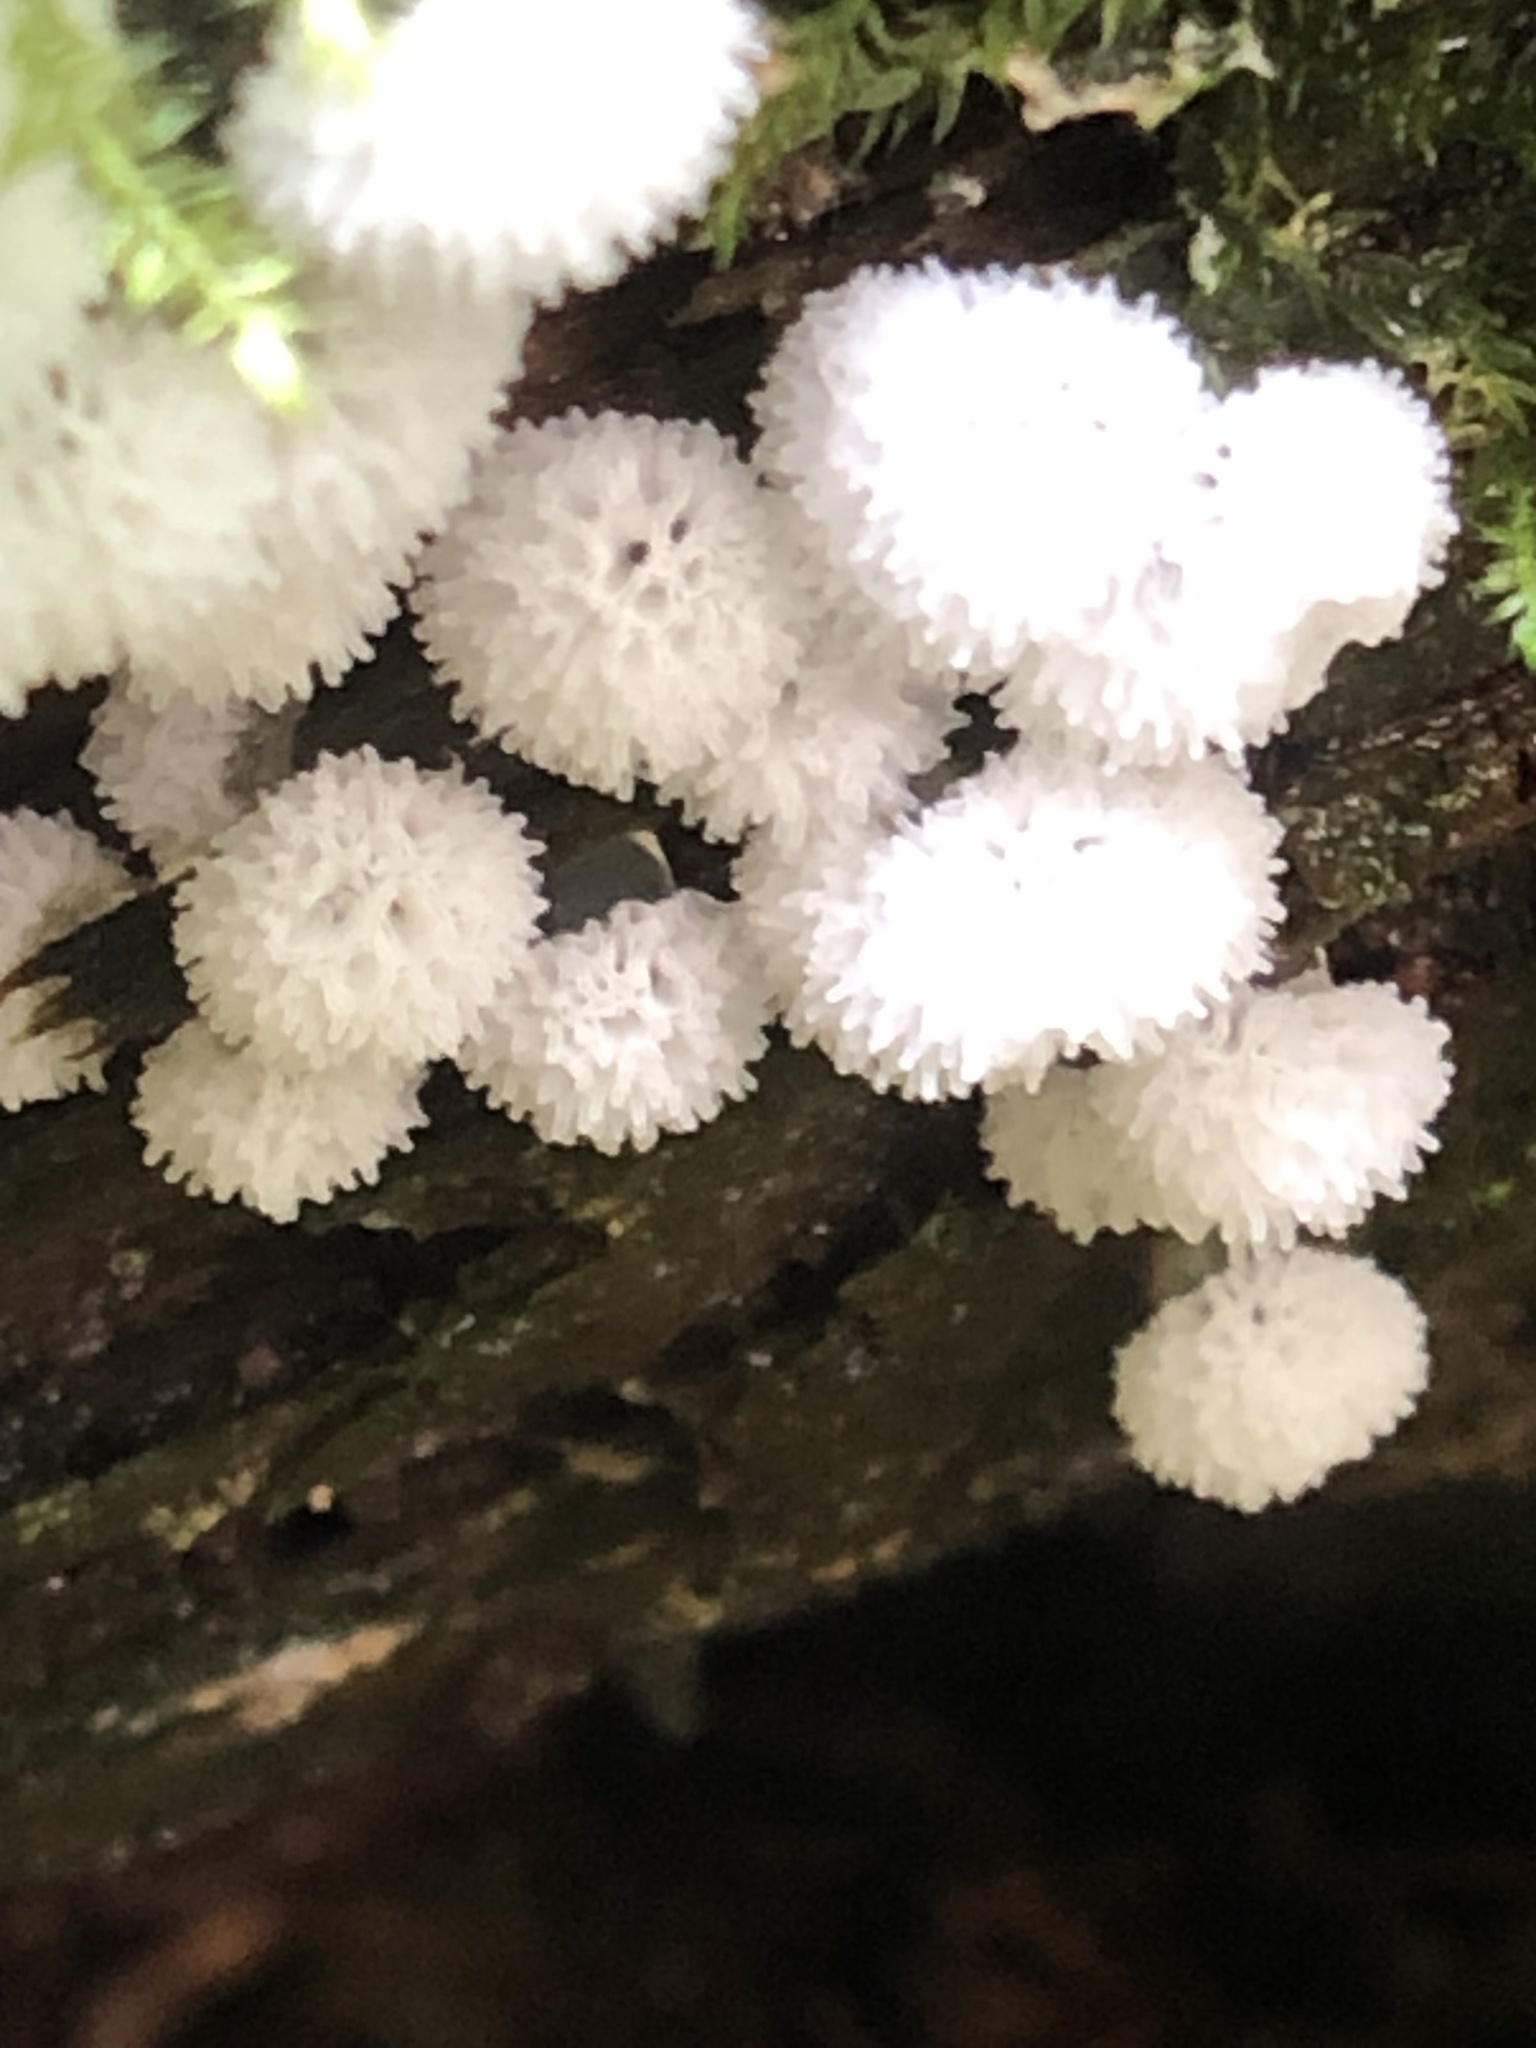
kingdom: Protozoa
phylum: Mycetozoa
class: Protosteliomycetes
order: Ceratiomyxales
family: Ceratiomyxaceae
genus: Ceratiomyxa
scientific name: Ceratiomyxa fruticulosa
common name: Honeycomb coral slime mold
